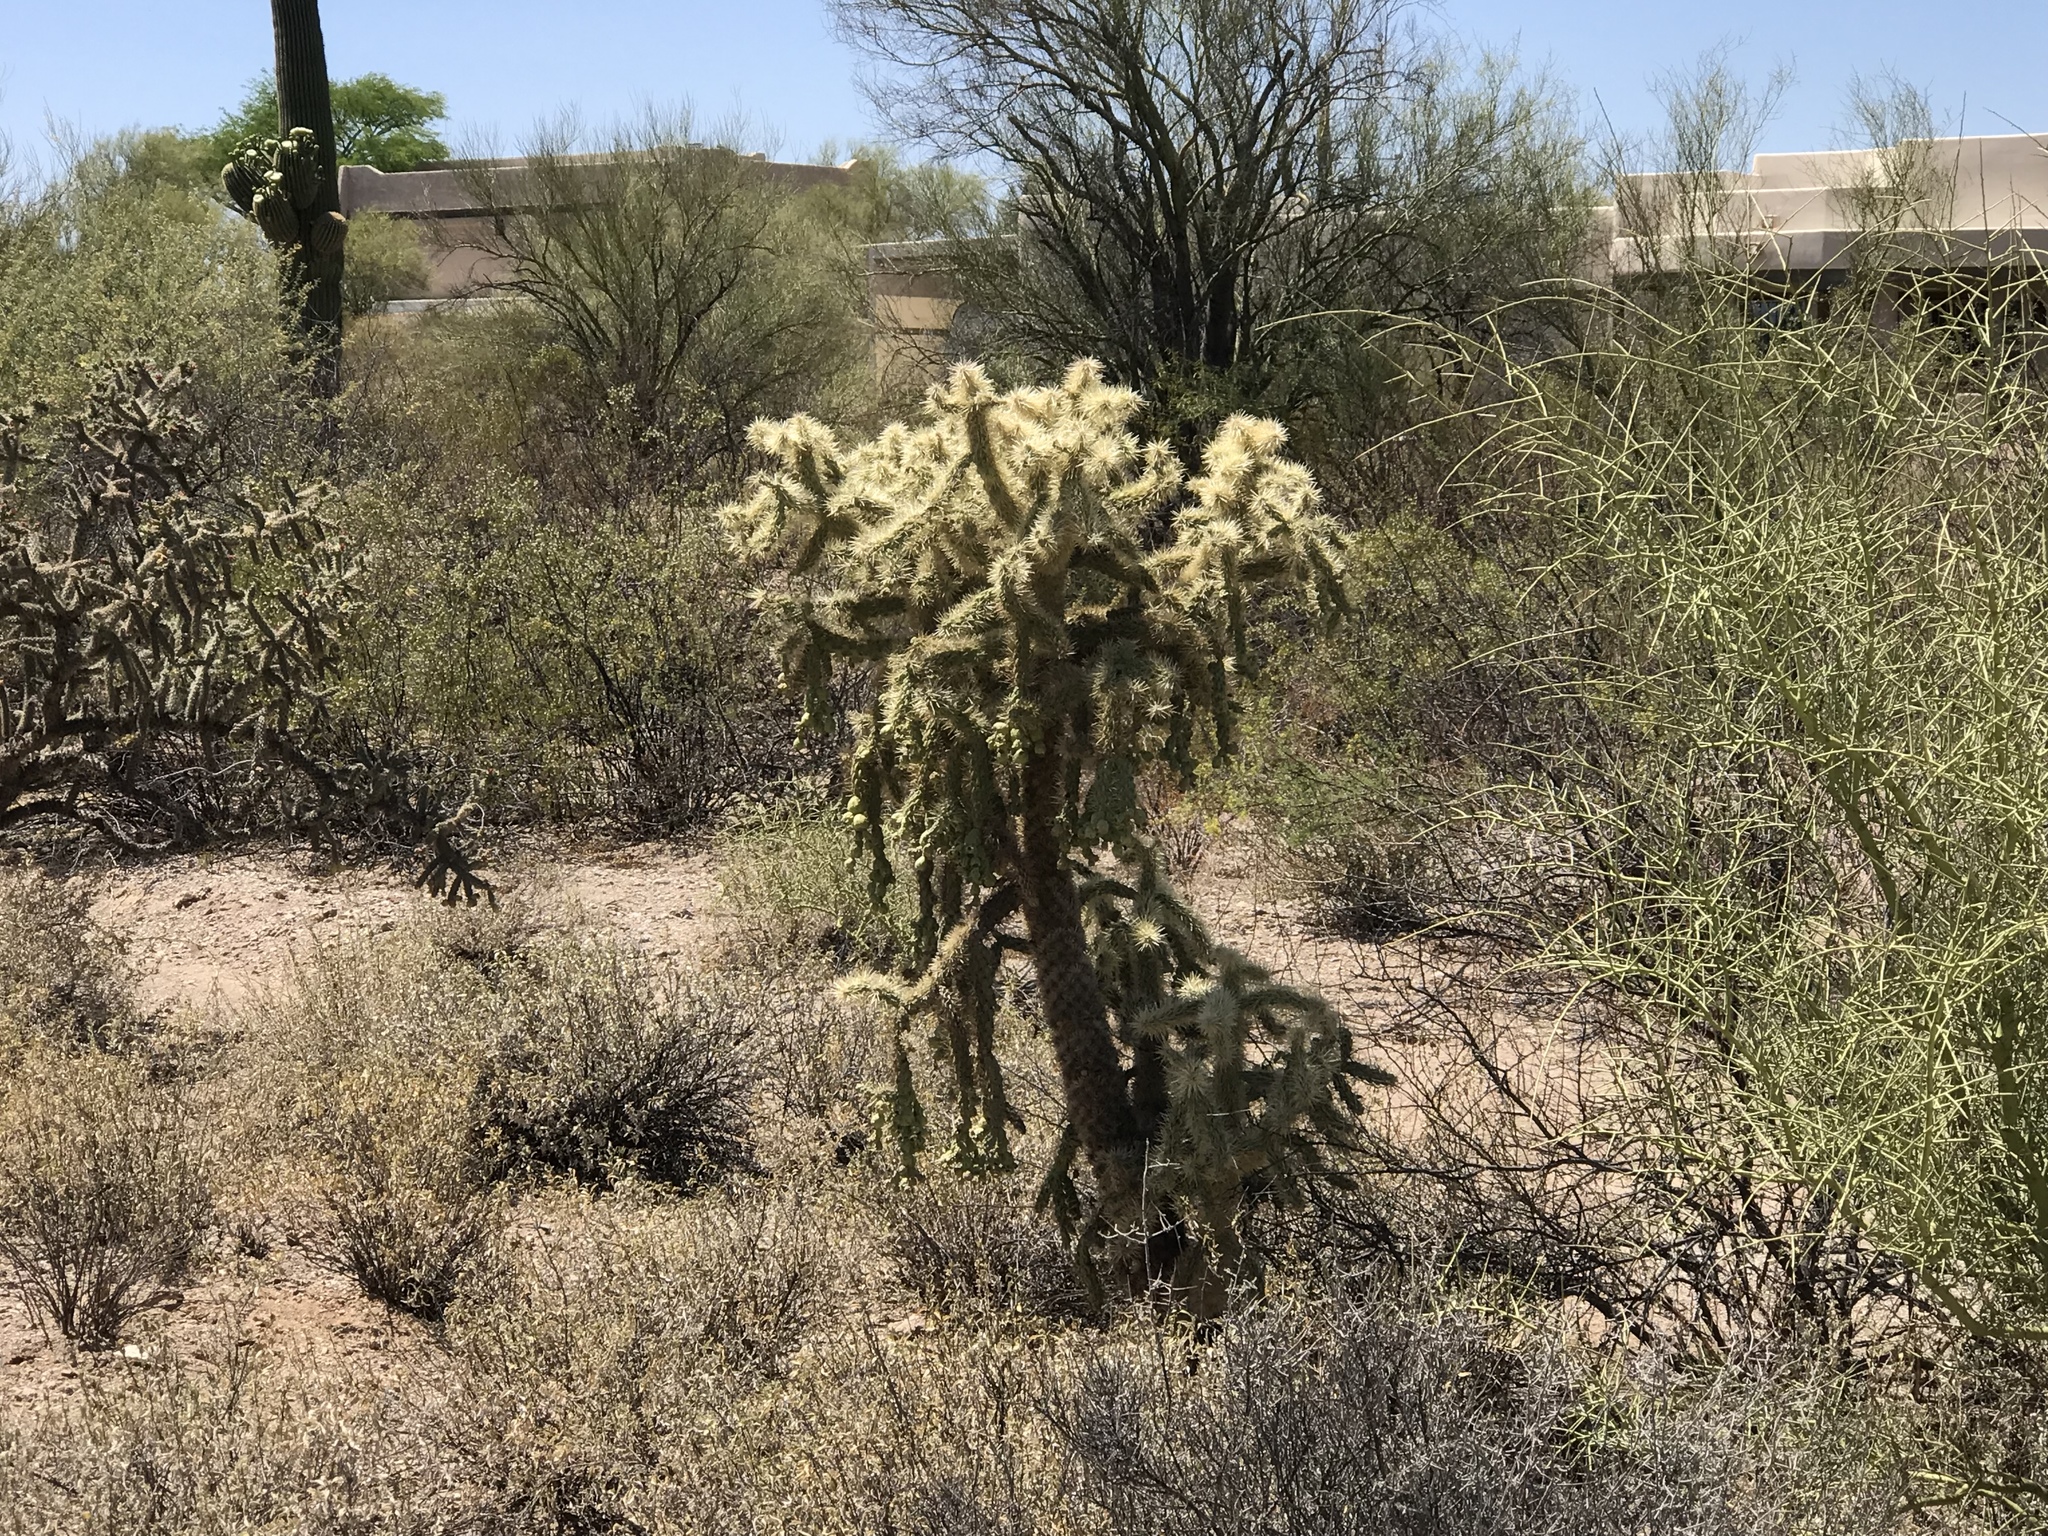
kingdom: Plantae
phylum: Tracheophyta
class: Magnoliopsida
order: Caryophyllales
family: Cactaceae
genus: Cylindropuntia
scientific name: Cylindropuntia fulgida
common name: Jumping cholla
